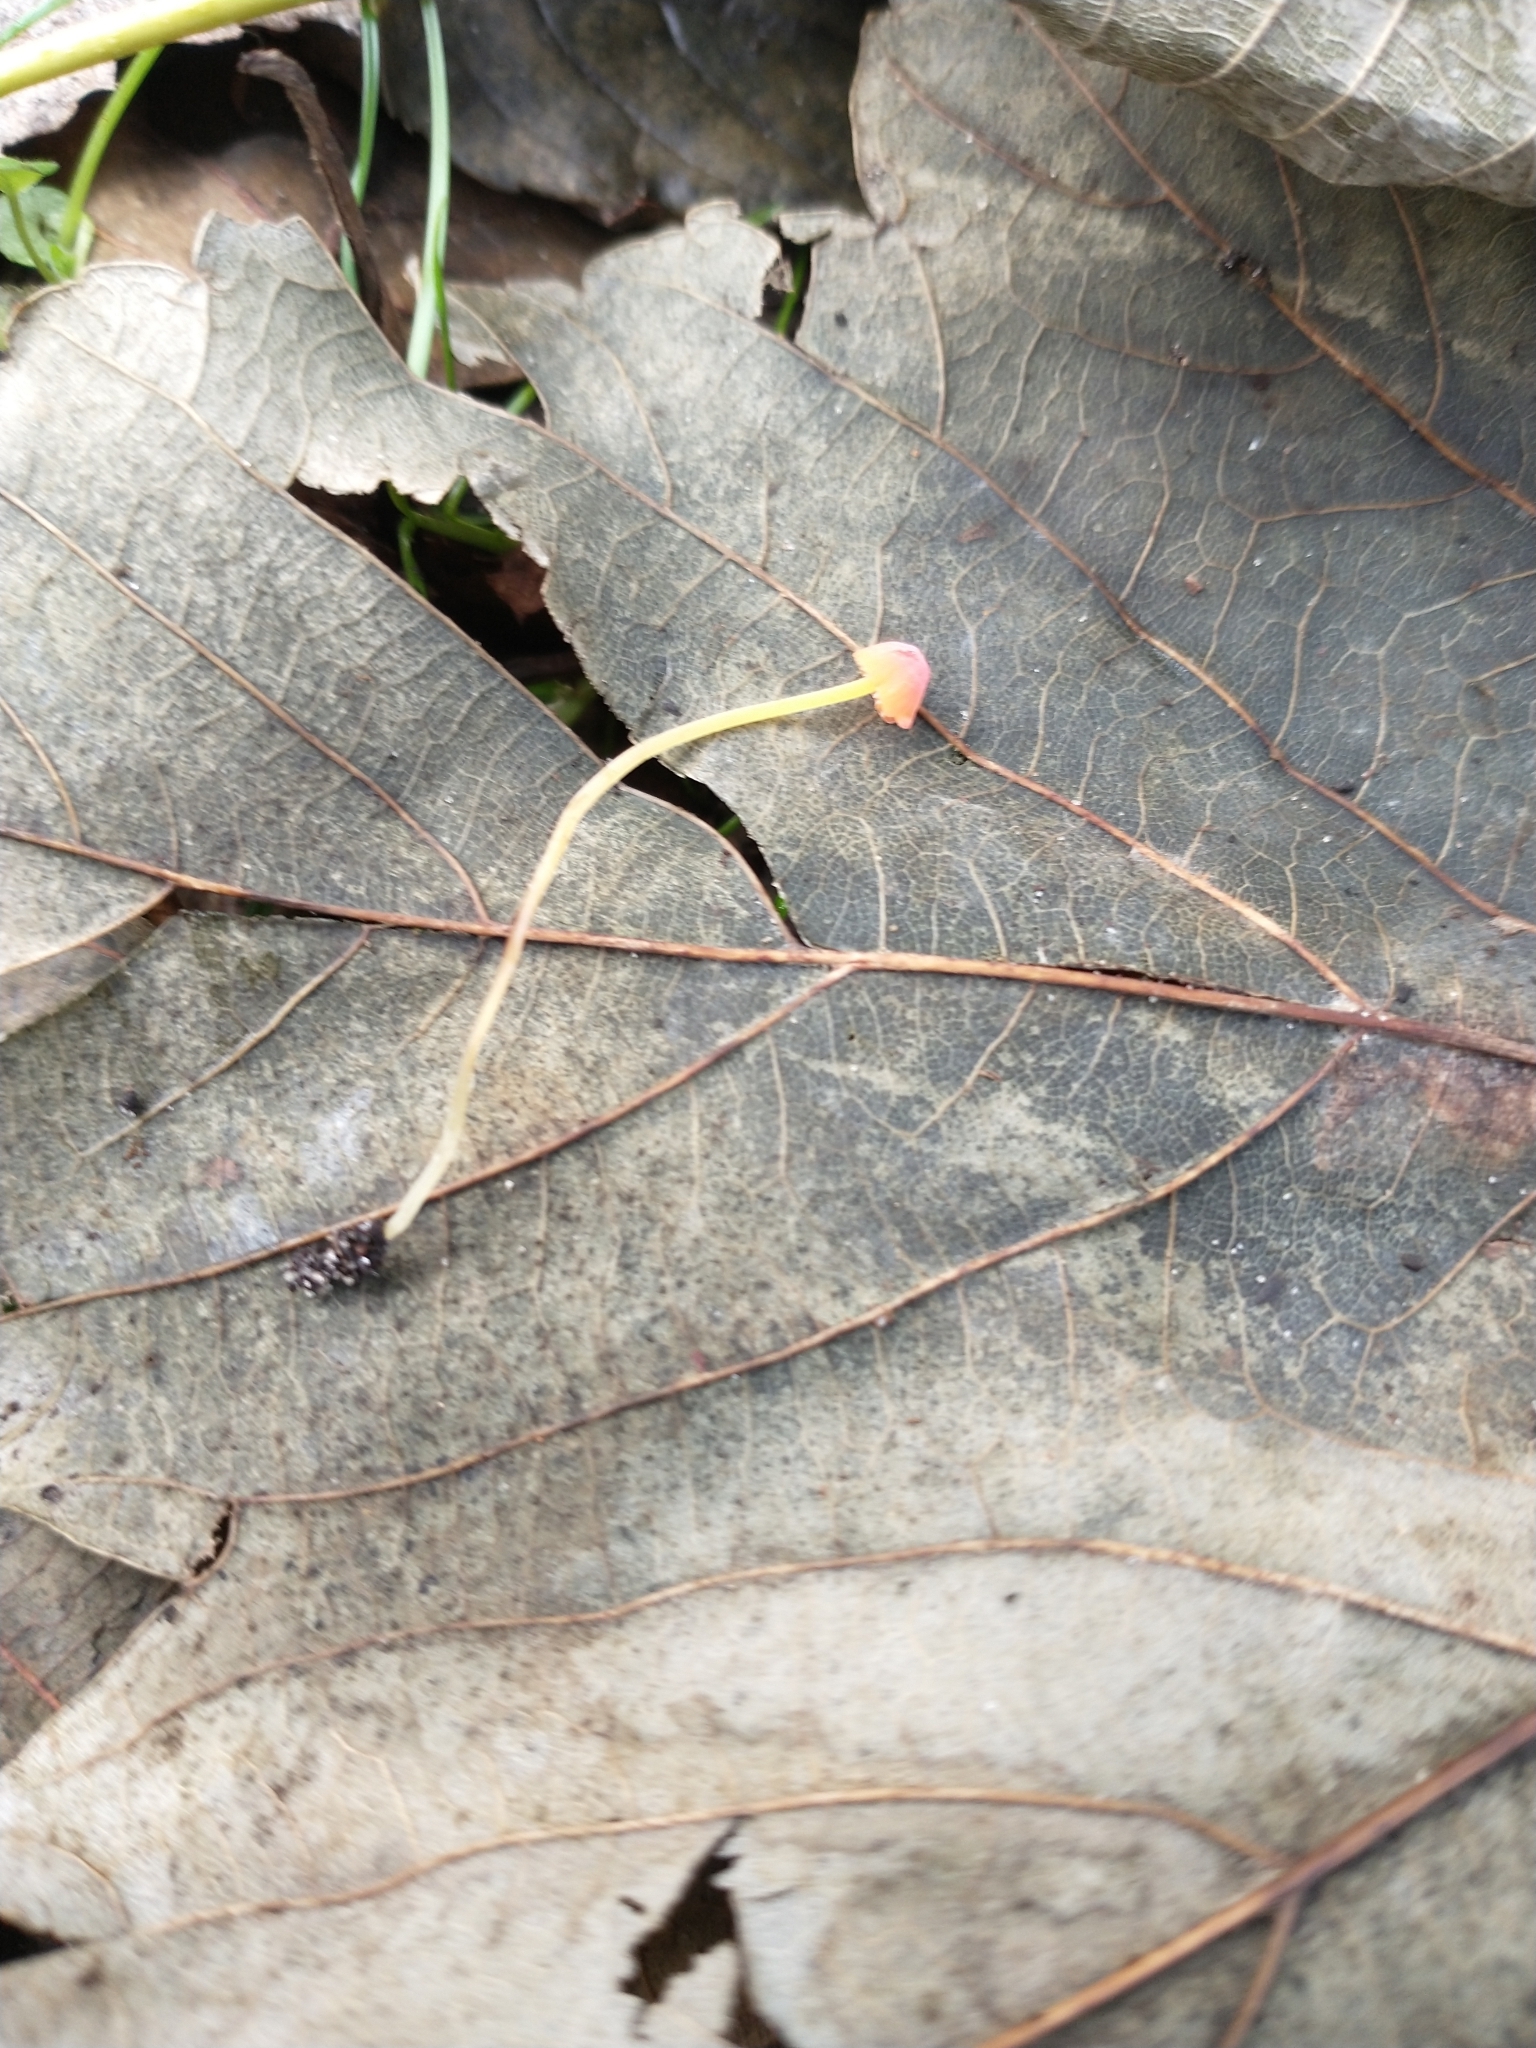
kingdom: Fungi
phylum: Basidiomycota
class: Agaricomycetes
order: Agaricales
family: Mycenaceae
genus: Mycena
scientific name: Mycena acicula
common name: Orange bonnet
